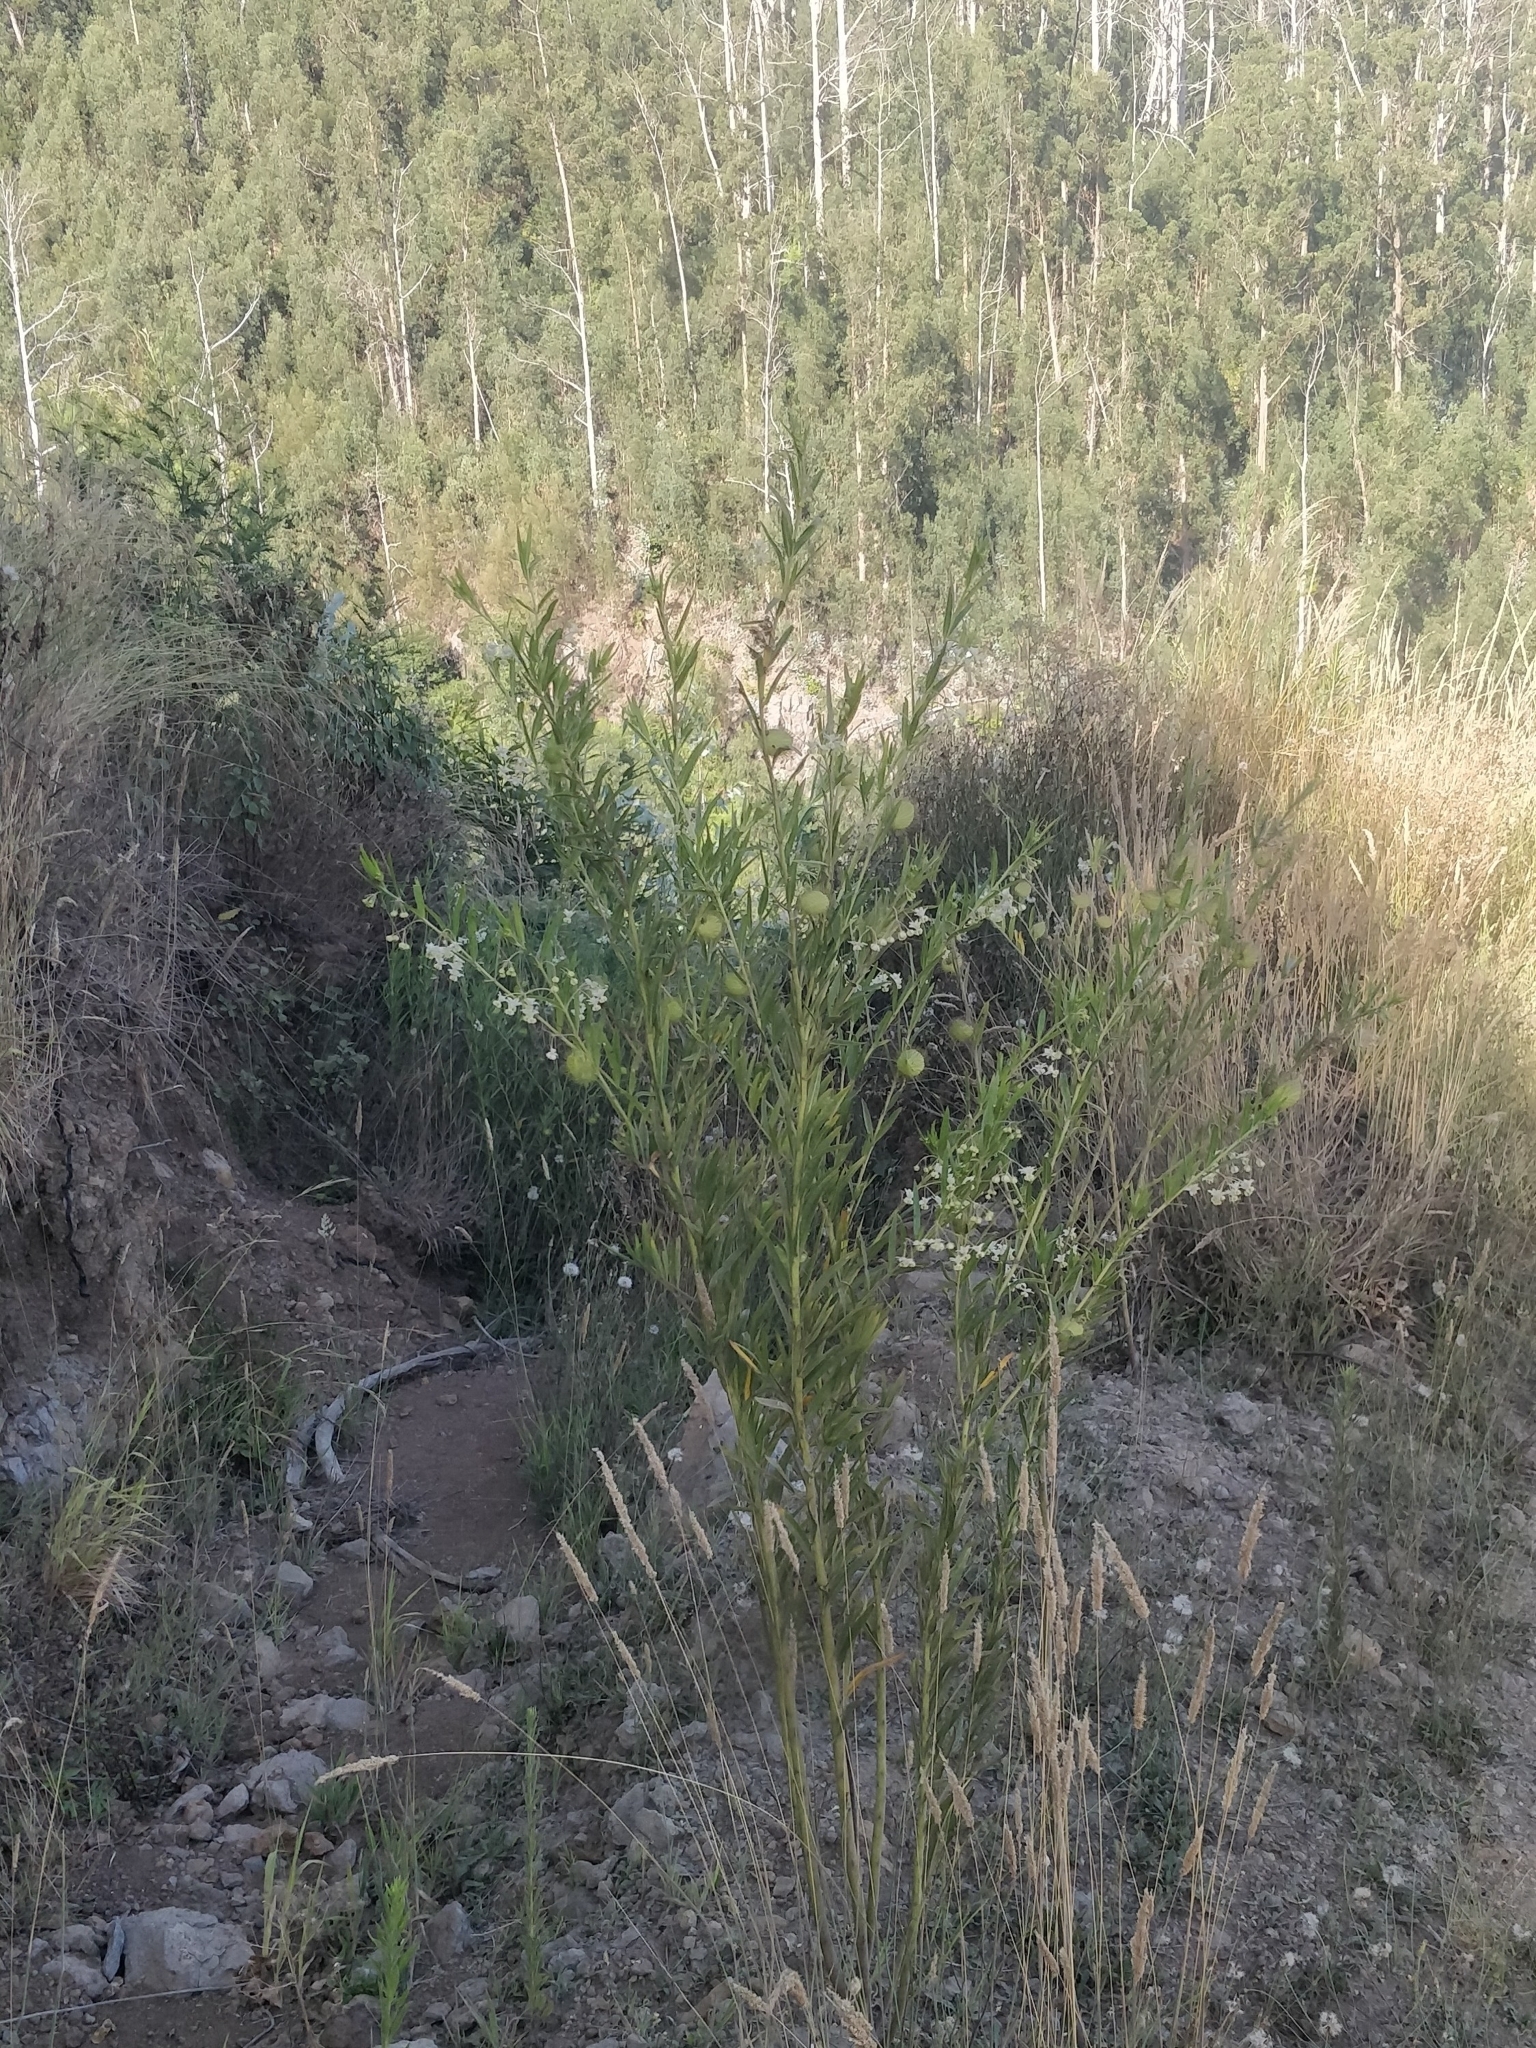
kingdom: Plantae
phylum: Tracheophyta
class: Magnoliopsida
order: Gentianales
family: Apocynaceae
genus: Gomphocarpus
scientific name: Gomphocarpus fruticosus
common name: Milkweed
